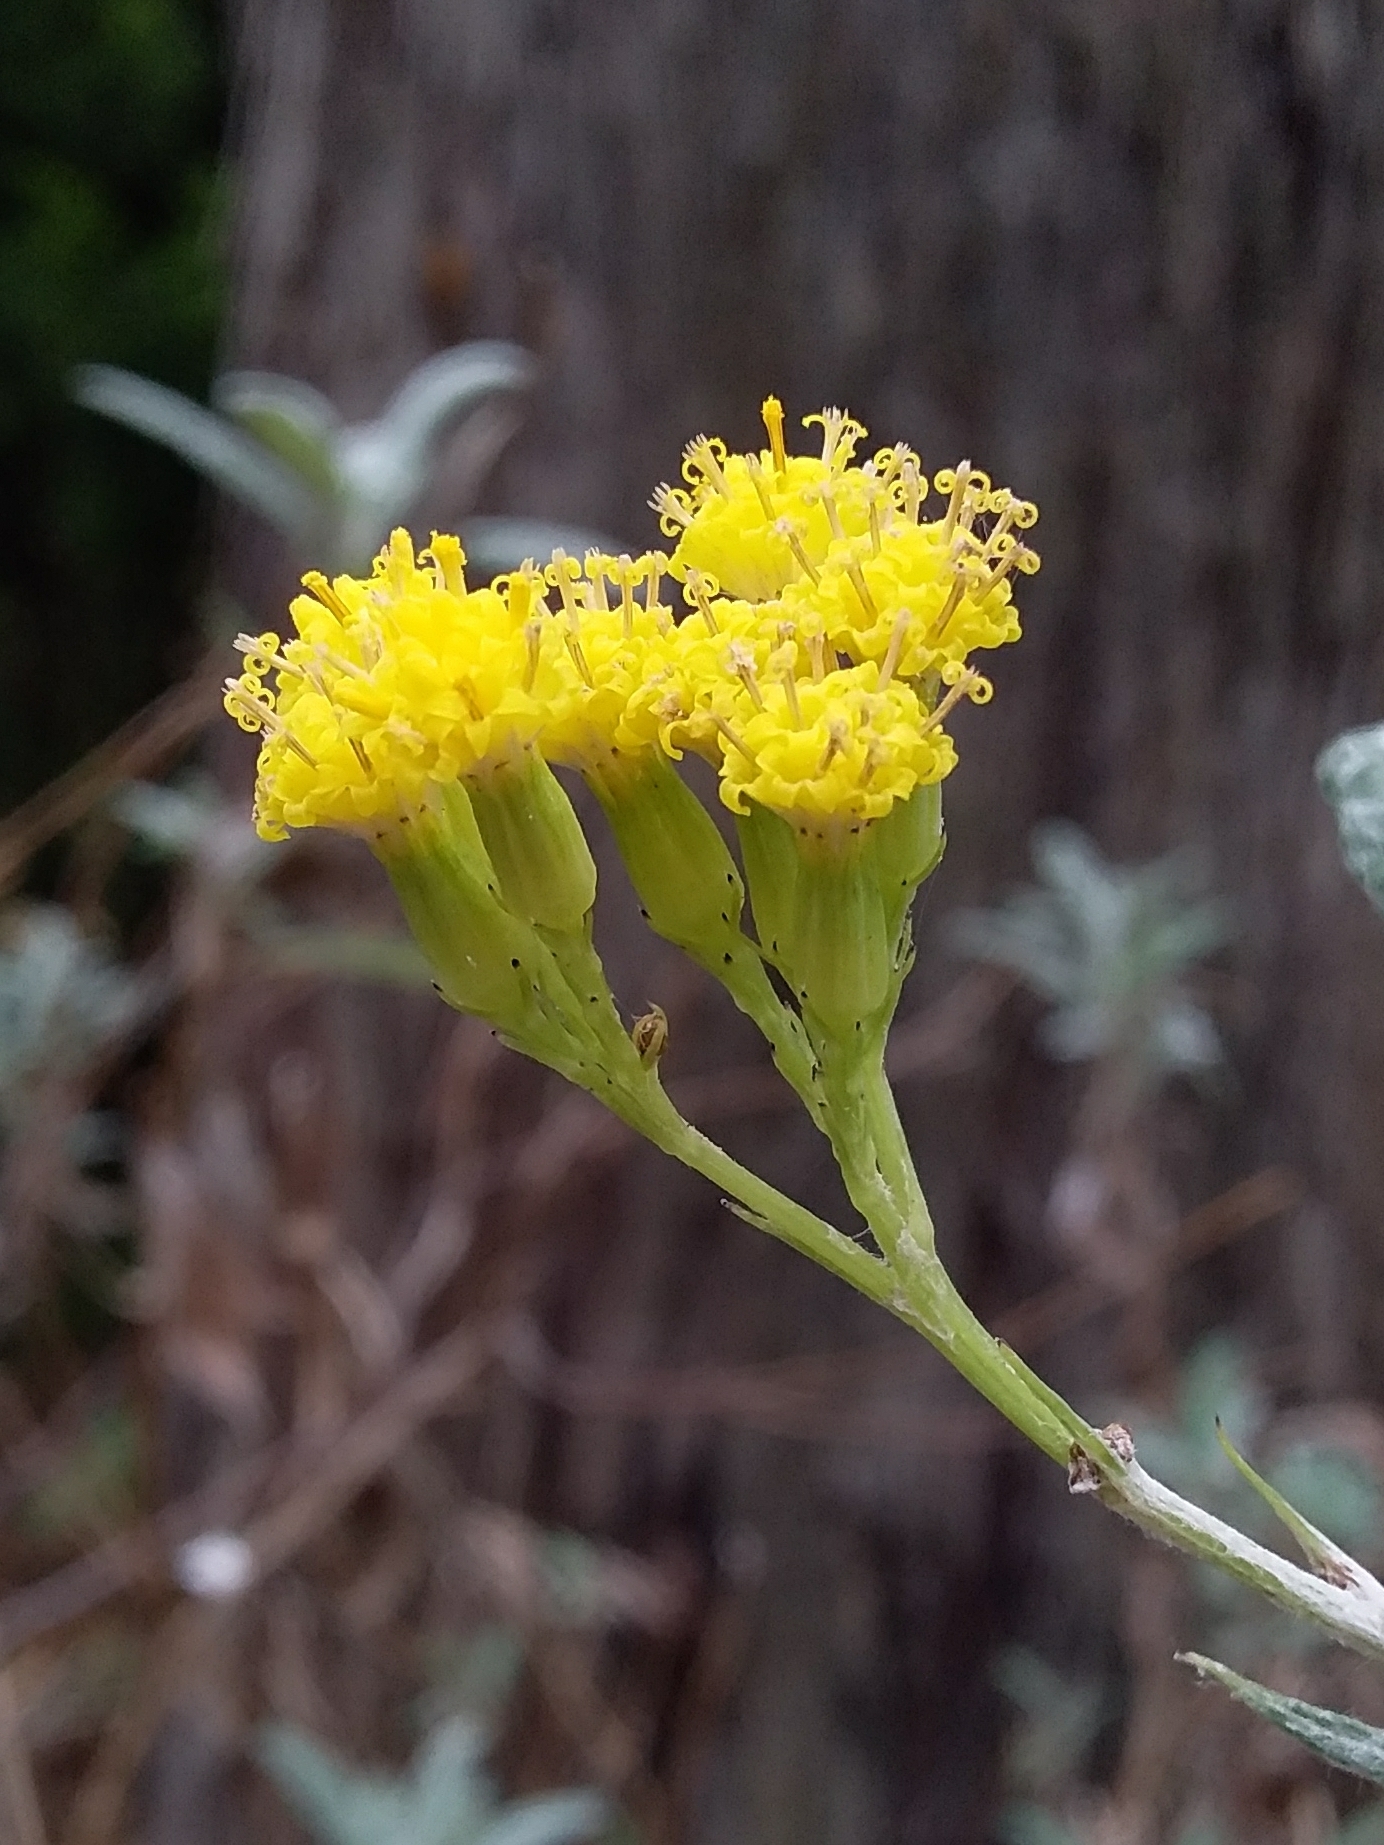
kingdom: Plantae
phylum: Tracheophyta
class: Magnoliopsida
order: Asterales
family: Asteraceae
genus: Senecio
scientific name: Senecio hypoleucus
